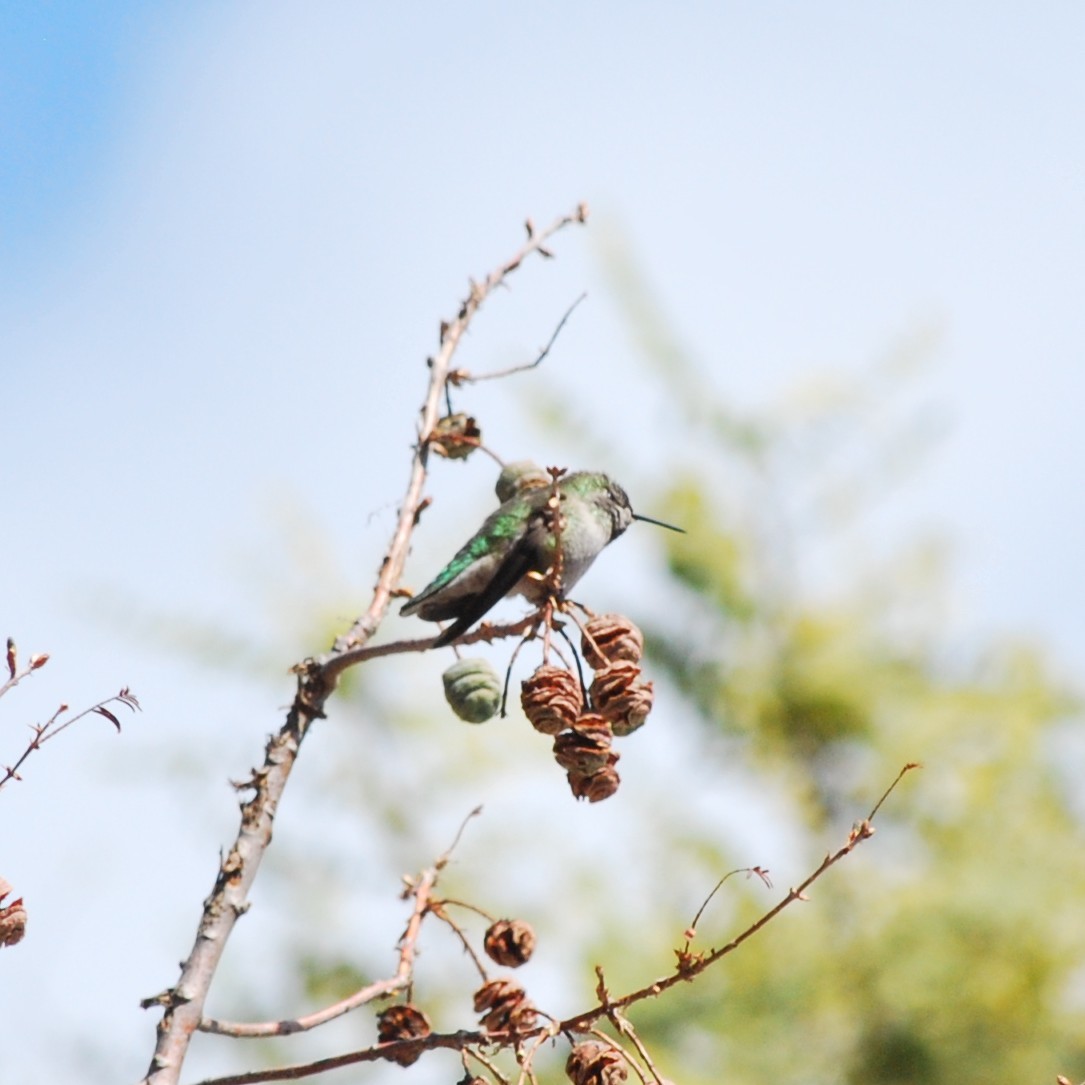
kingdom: Animalia
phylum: Chordata
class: Aves
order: Apodiformes
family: Trochilidae
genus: Calypte
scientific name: Calypte anna
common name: Anna's hummingbird
